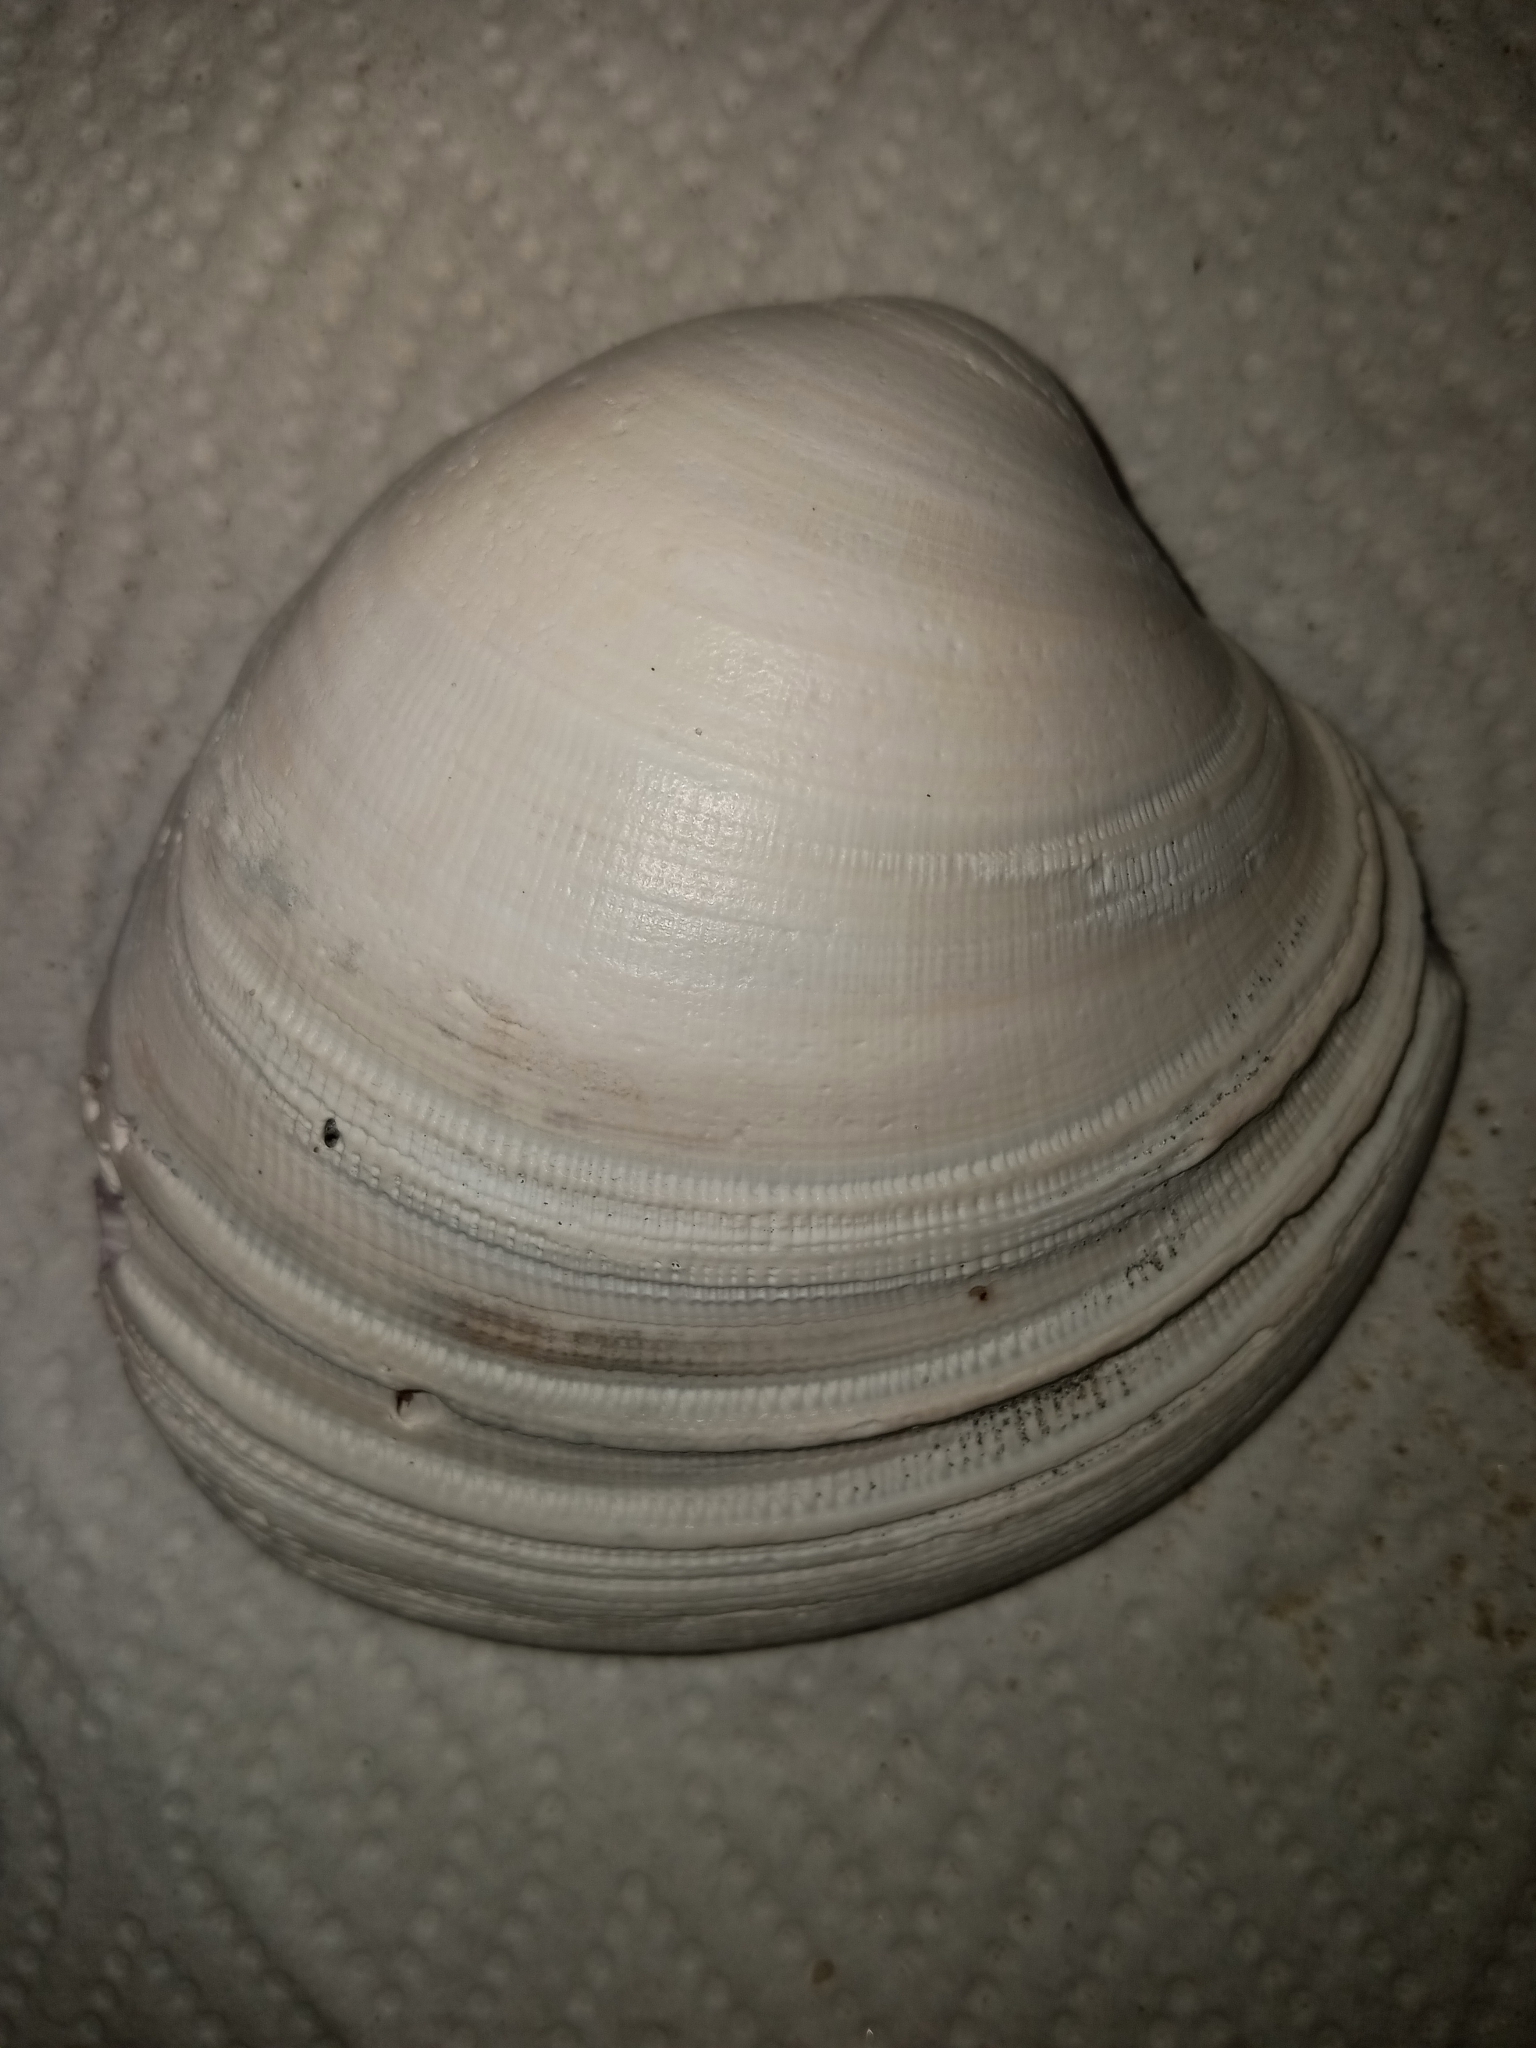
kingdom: Animalia
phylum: Mollusca
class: Bivalvia
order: Venerida
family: Veneridae
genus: Mercenaria
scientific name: Mercenaria mercenaria
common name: American hard-shelled clam
